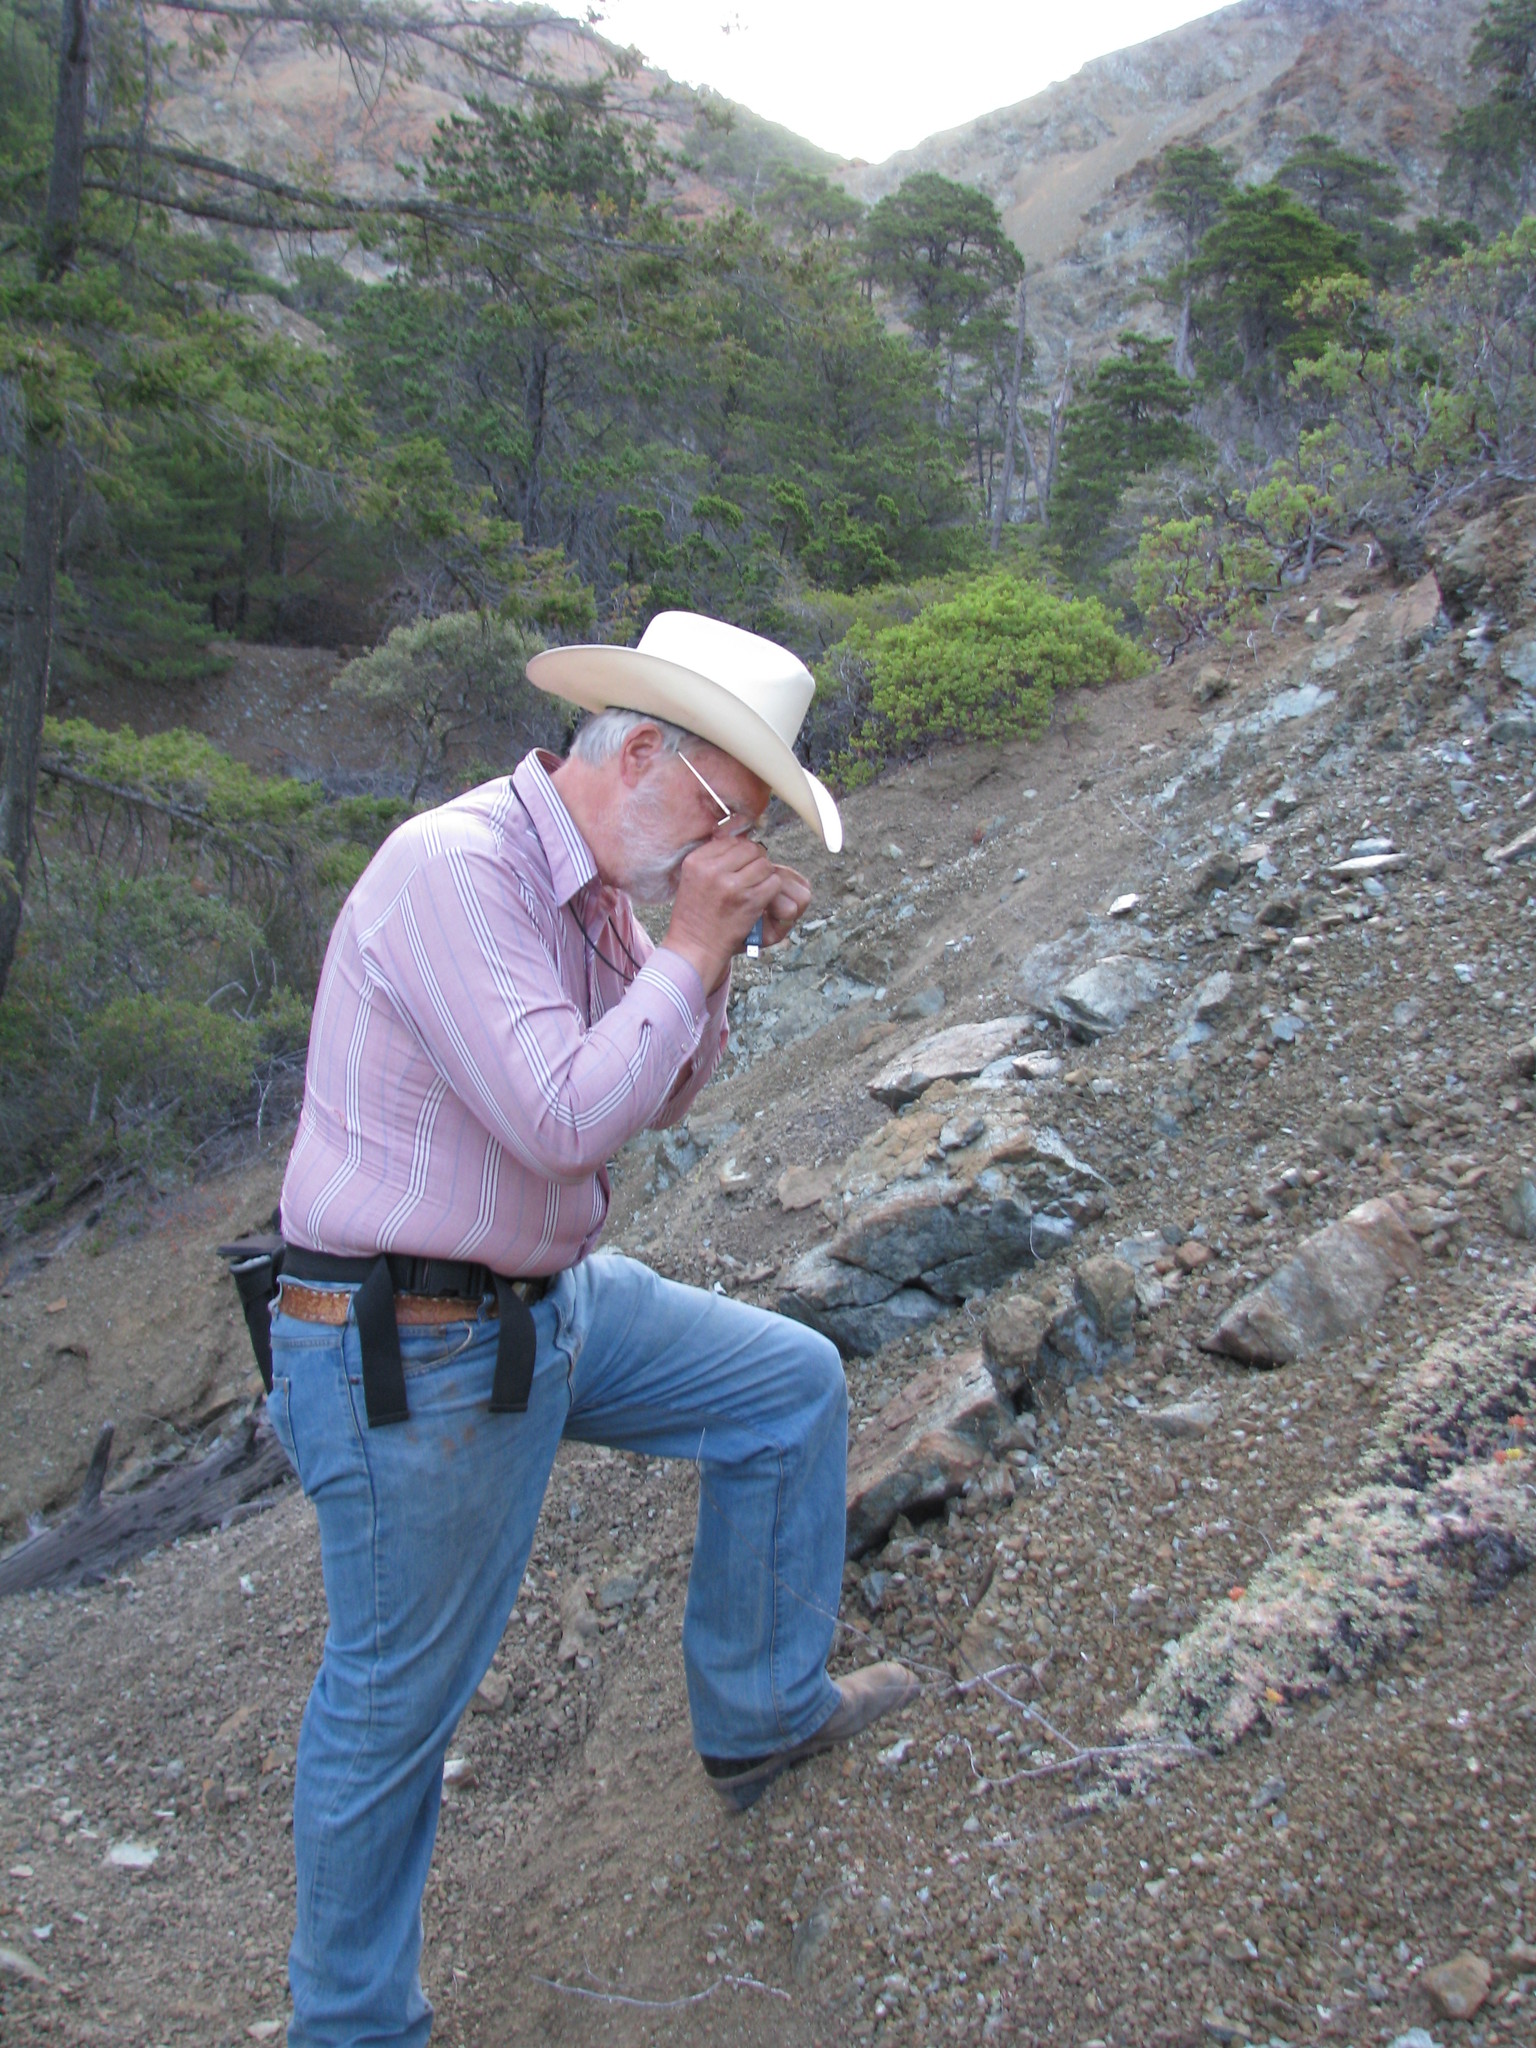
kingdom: Plantae
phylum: Tracheophyta
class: Magnoliopsida
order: Caryophyllales
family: Polygonaceae
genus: Eriogonum
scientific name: Eriogonum cedrorum
